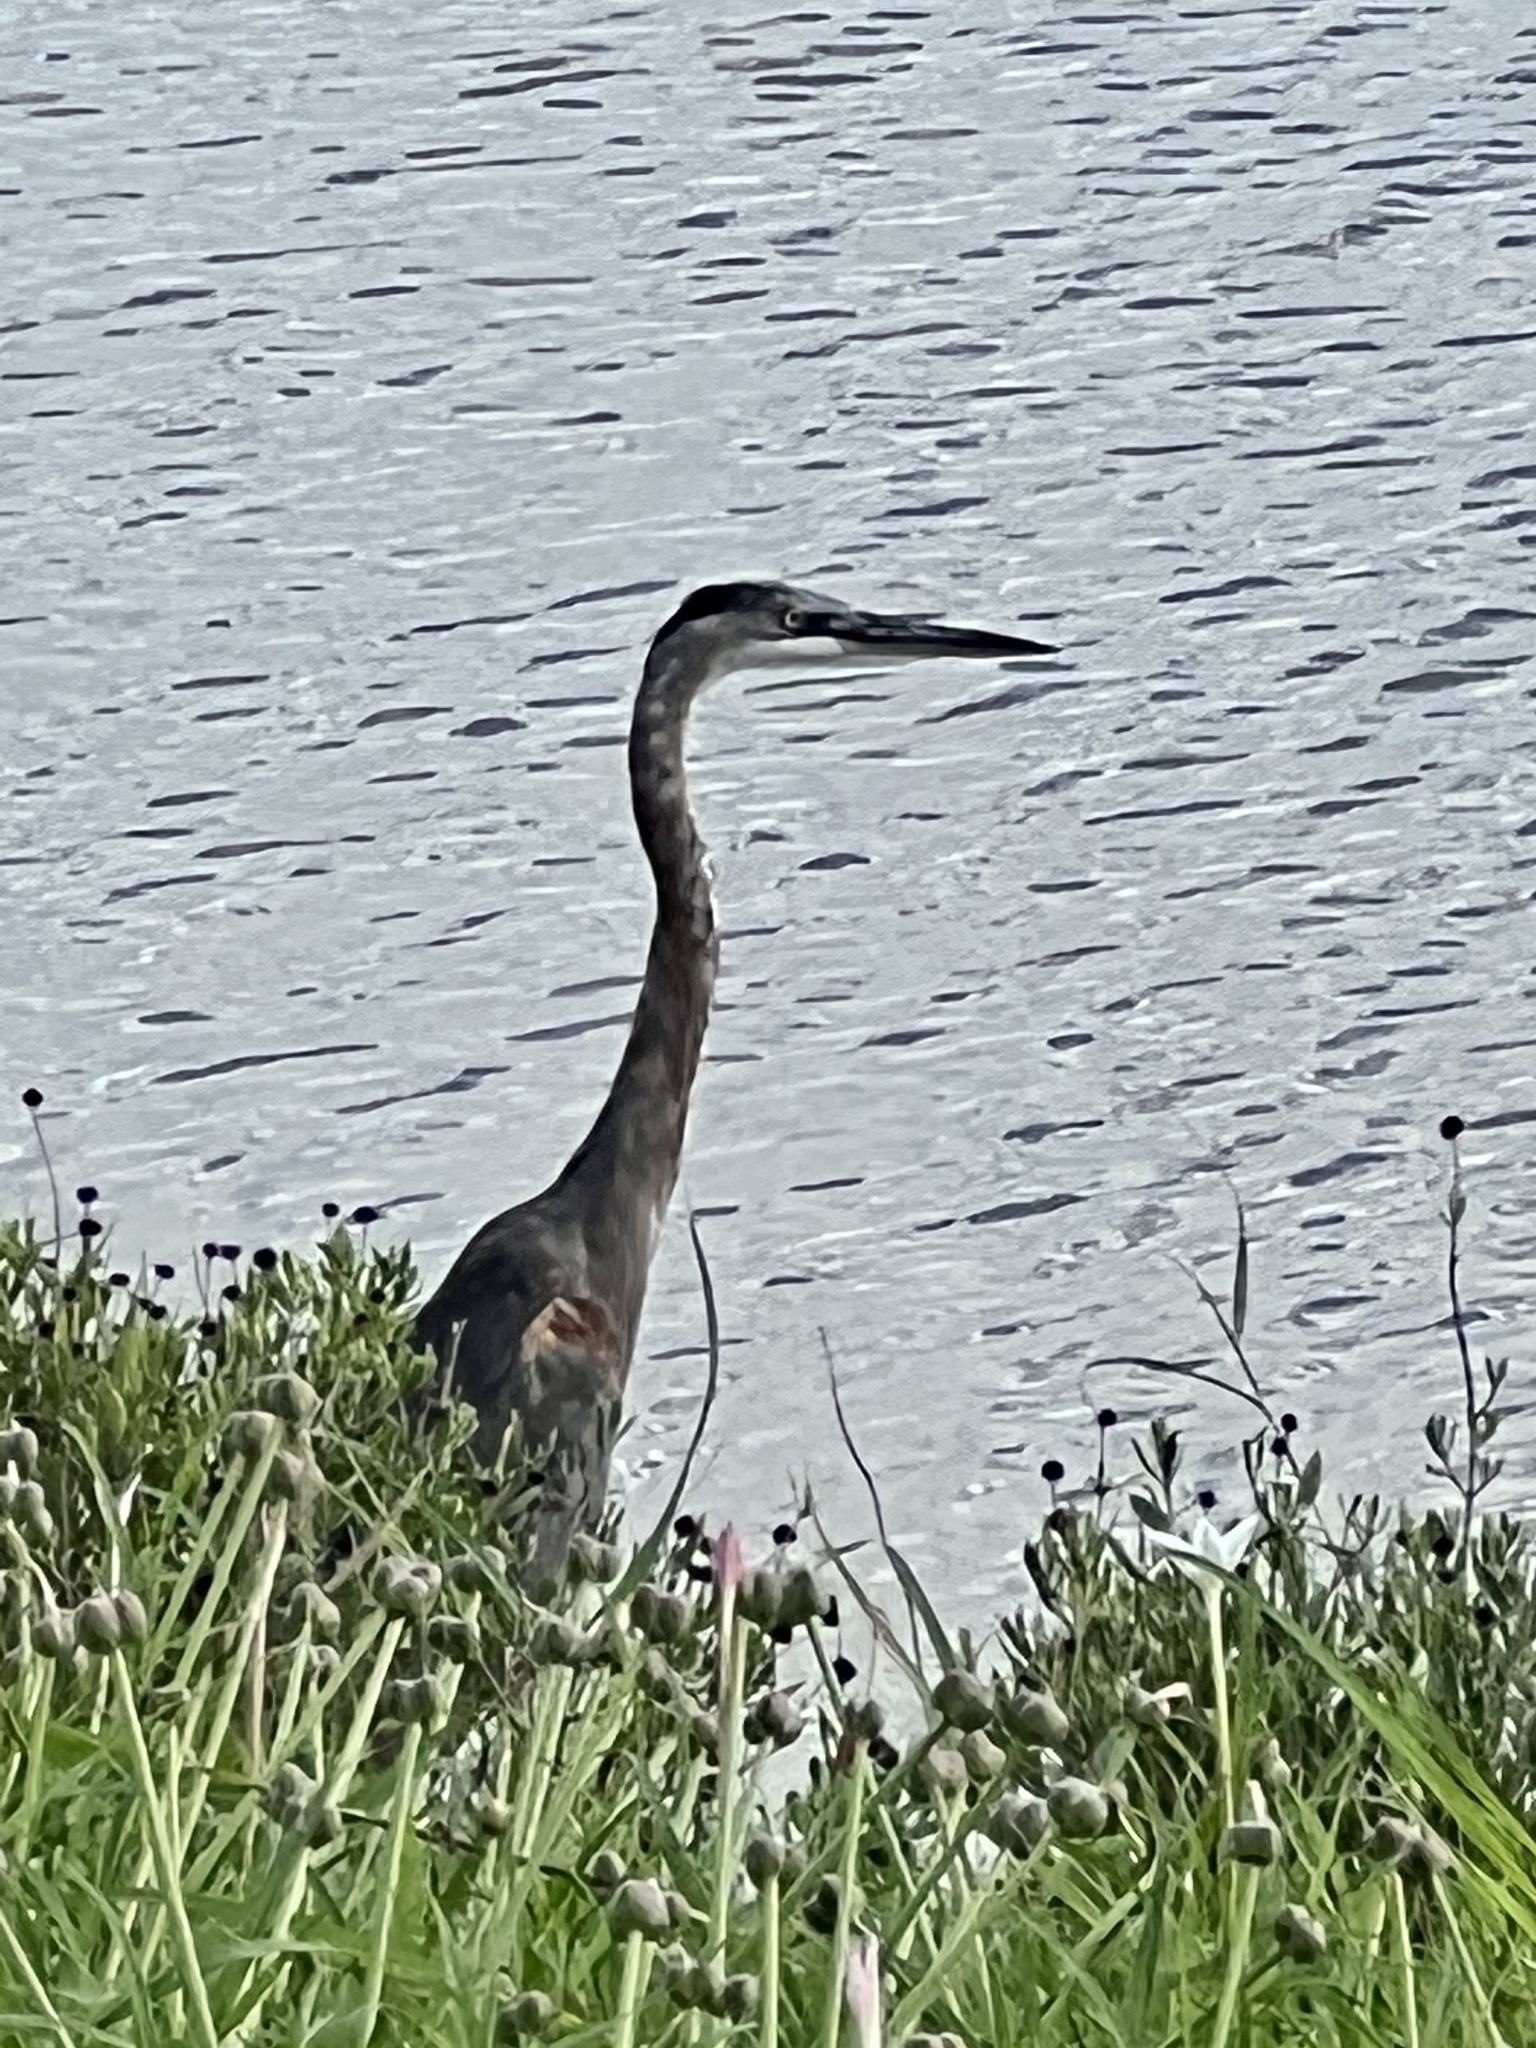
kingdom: Animalia
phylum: Chordata
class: Aves
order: Pelecaniformes
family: Ardeidae
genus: Ardea
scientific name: Ardea herodias
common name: Great blue heron
